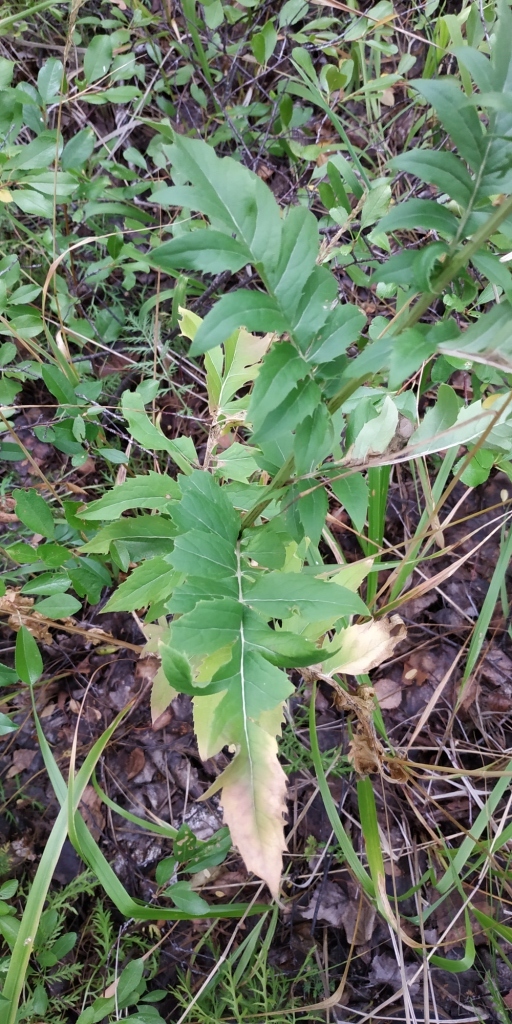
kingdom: Plantae
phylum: Tracheophyta
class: Magnoliopsida
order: Asterales
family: Asteraceae
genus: Cirsium
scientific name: Cirsium arvense
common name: Creeping thistle
